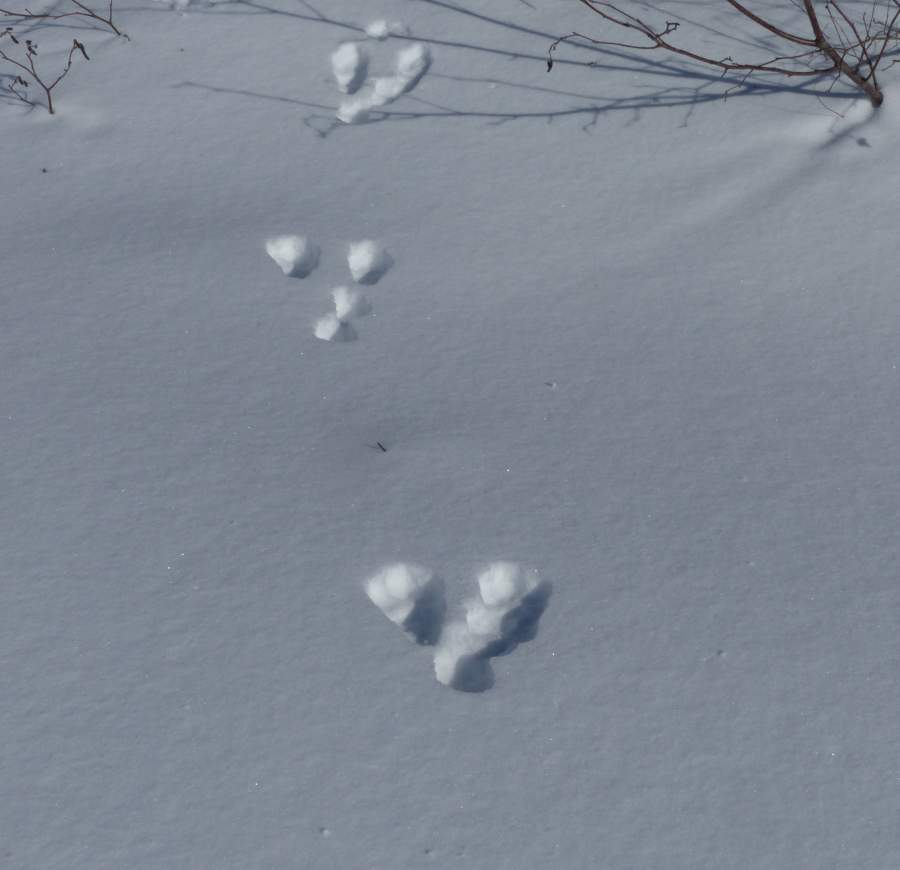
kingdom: Animalia
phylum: Chordata
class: Mammalia
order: Lagomorpha
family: Leporidae
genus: Lepus
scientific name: Lepus americanus
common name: Snowshoe hare
